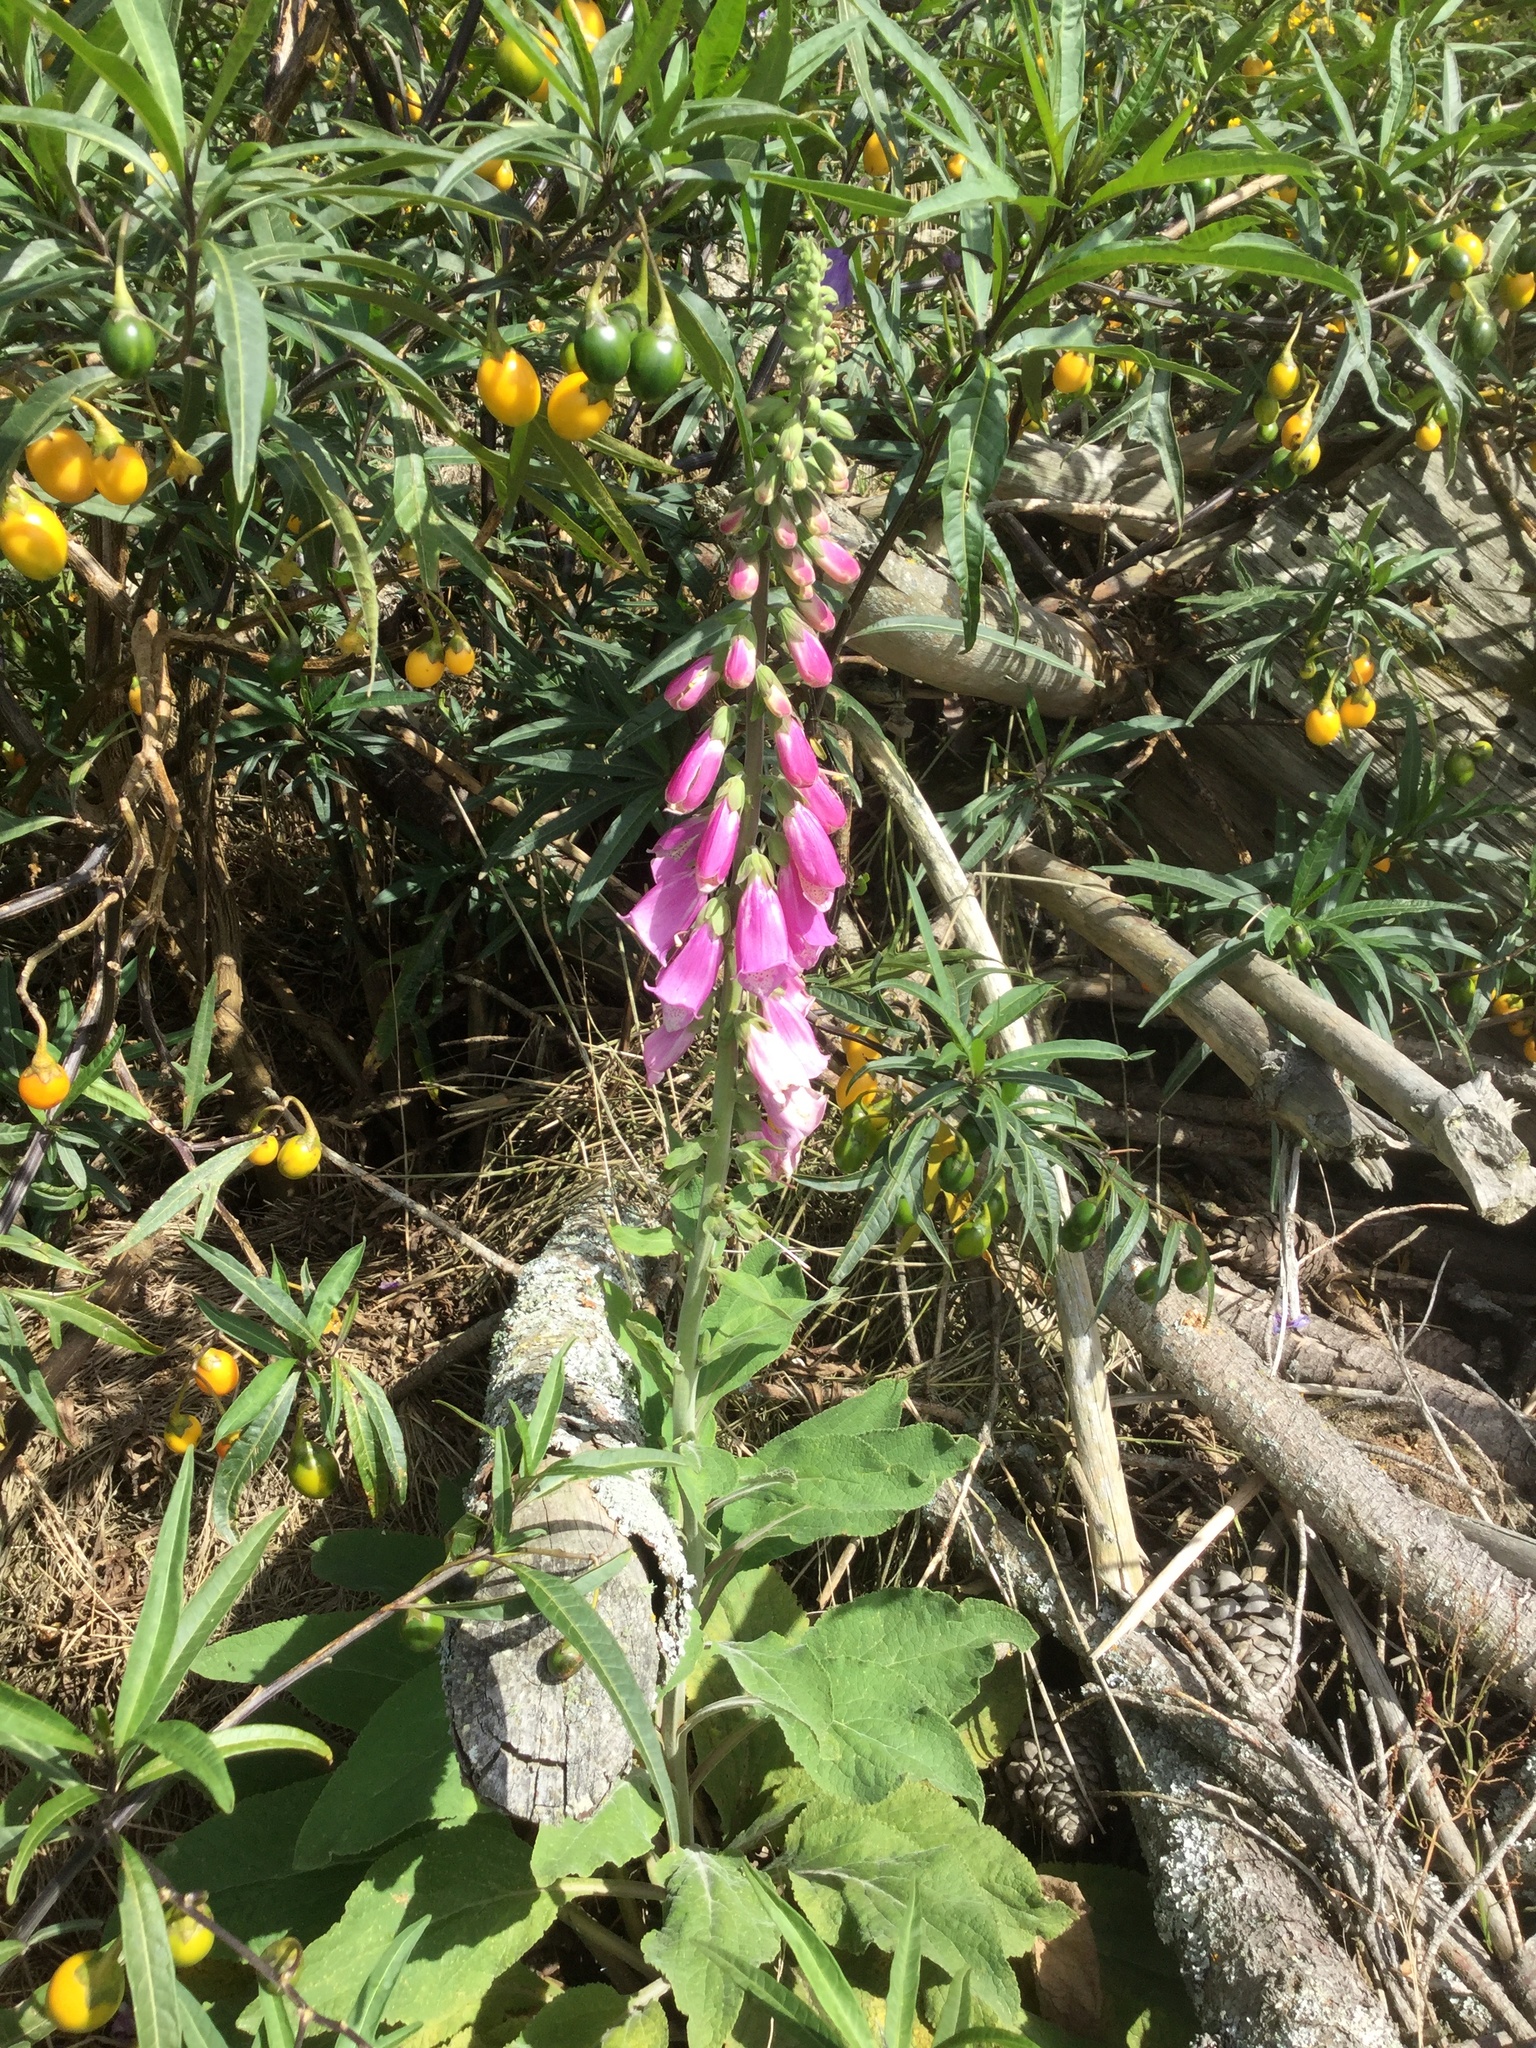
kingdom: Plantae
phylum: Tracheophyta
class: Magnoliopsida
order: Lamiales
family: Plantaginaceae
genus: Digitalis
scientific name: Digitalis purpurea
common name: Foxglove
